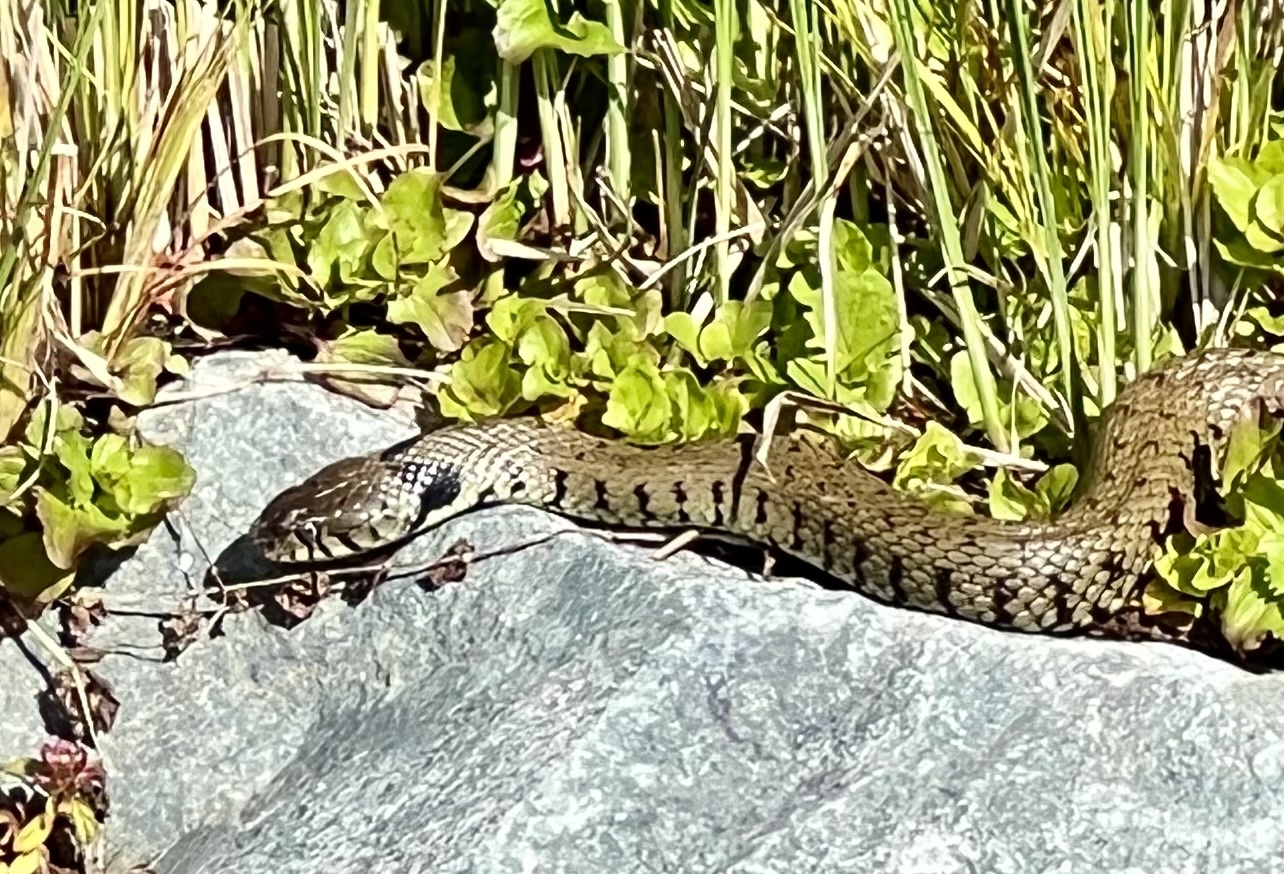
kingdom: Animalia
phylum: Chordata
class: Squamata
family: Colubridae
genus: Natrix
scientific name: Natrix helvetica
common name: Banded grass snake
